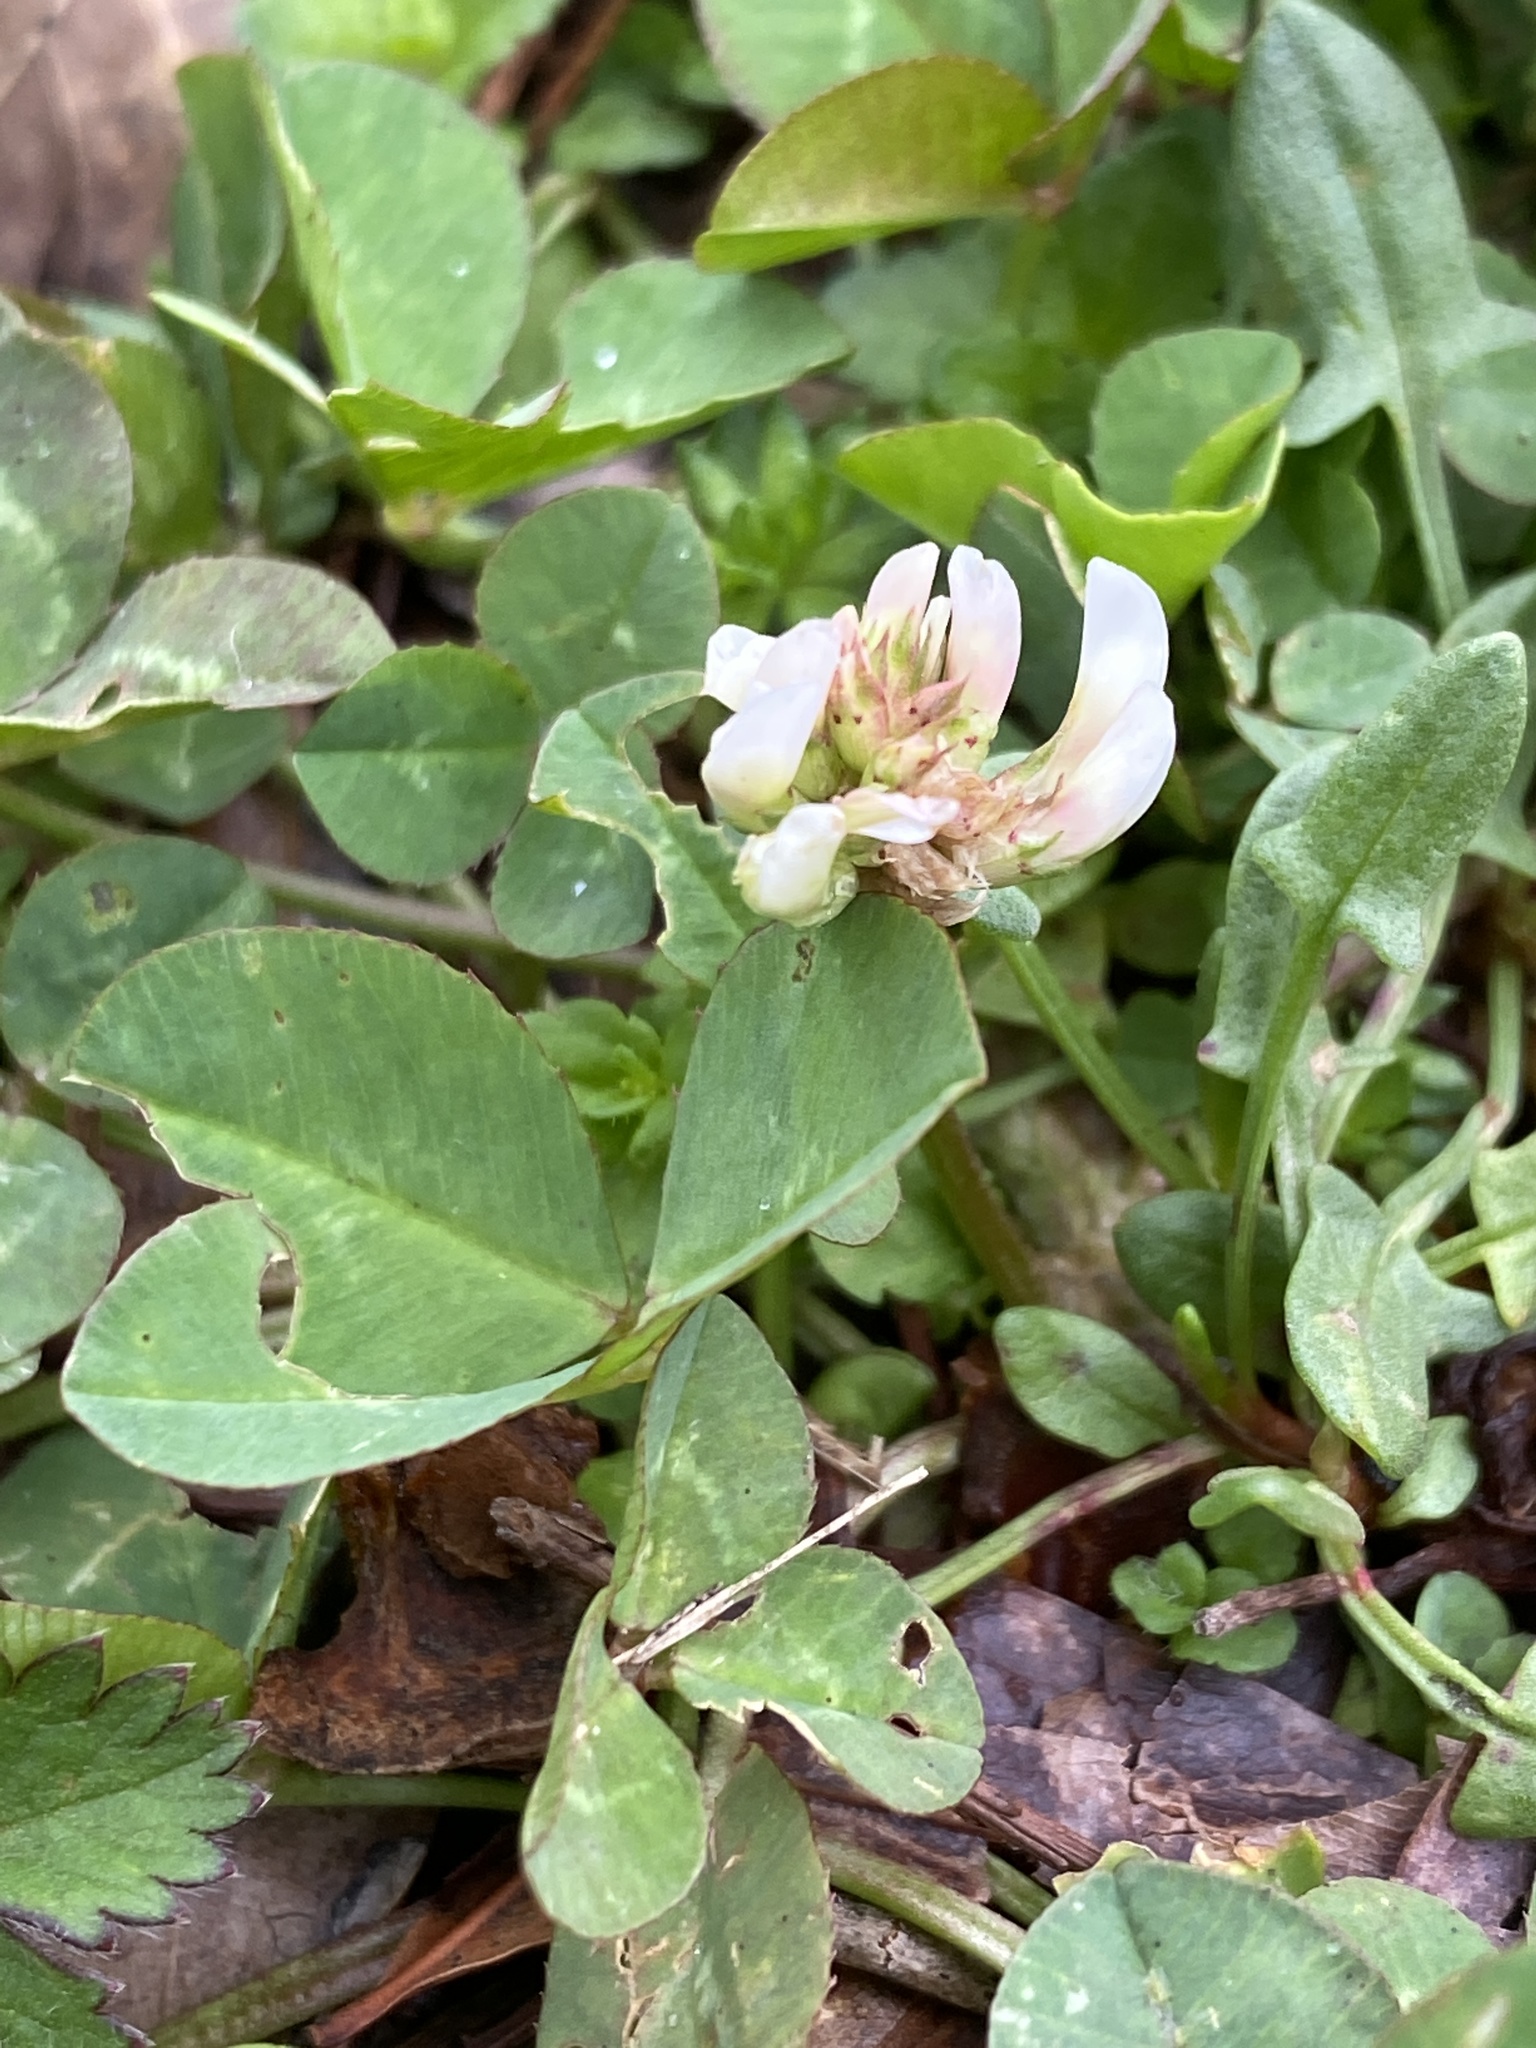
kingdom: Plantae
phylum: Tracheophyta
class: Magnoliopsida
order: Fabales
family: Fabaceae
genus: Trifolium
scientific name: Trifolium repens
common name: White clover
